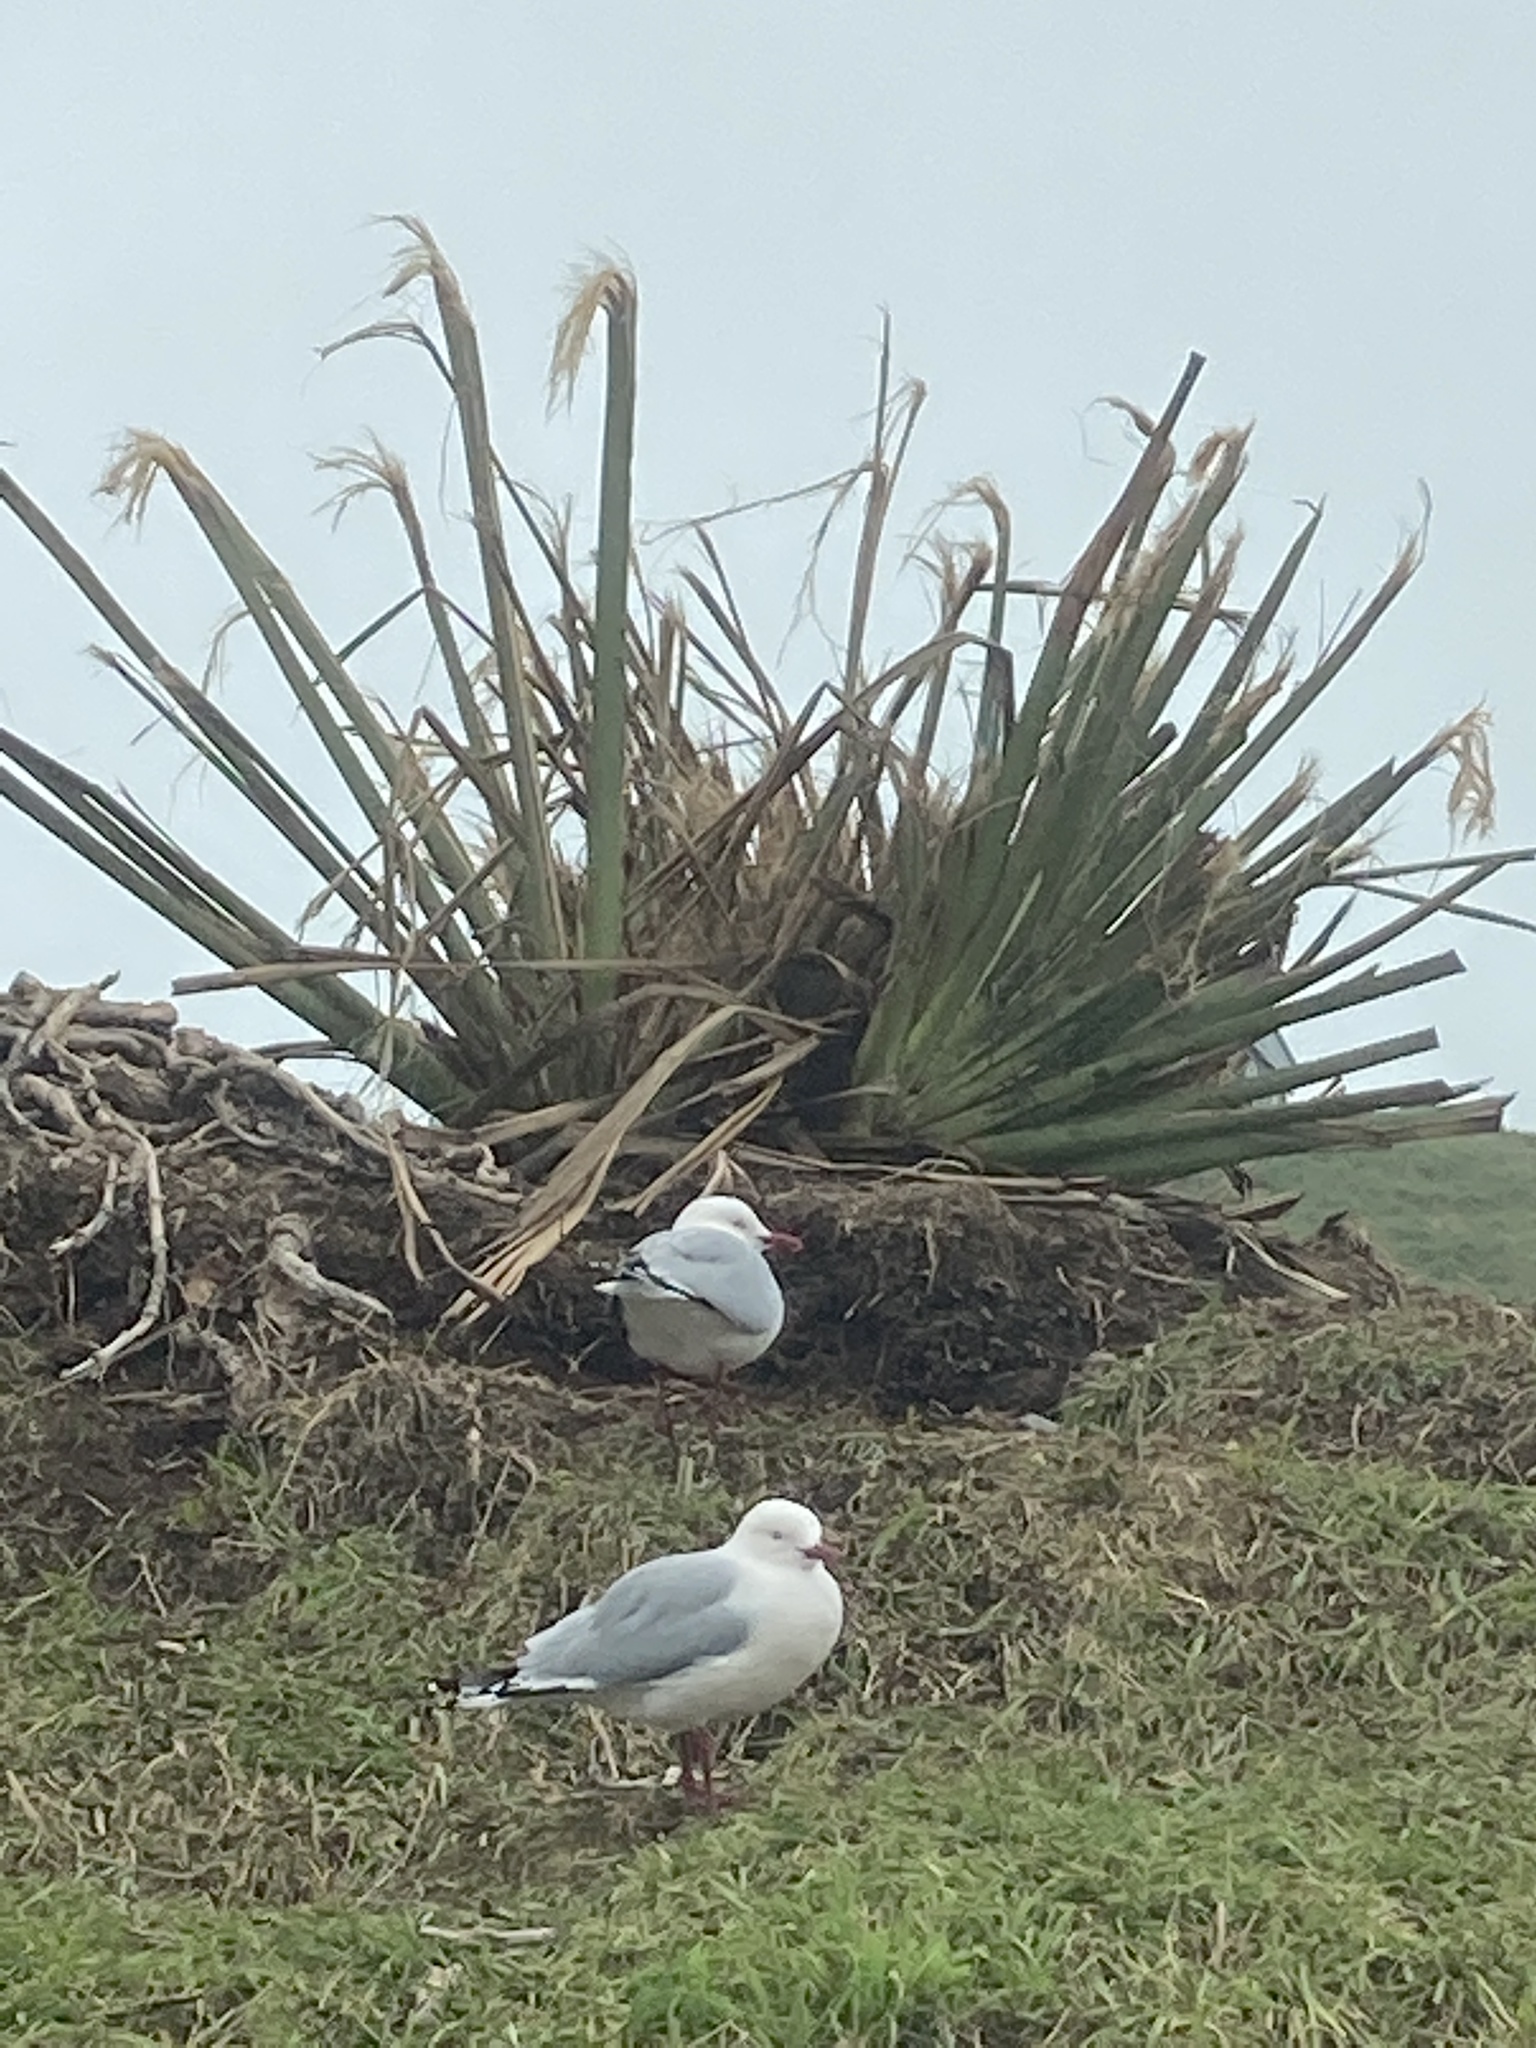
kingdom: Animalia
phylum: Chordata
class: Aves
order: Charadriiformes
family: Laridae
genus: Chroicocephalus
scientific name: Chroicocephalus novaehollandiae
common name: Silver gull
